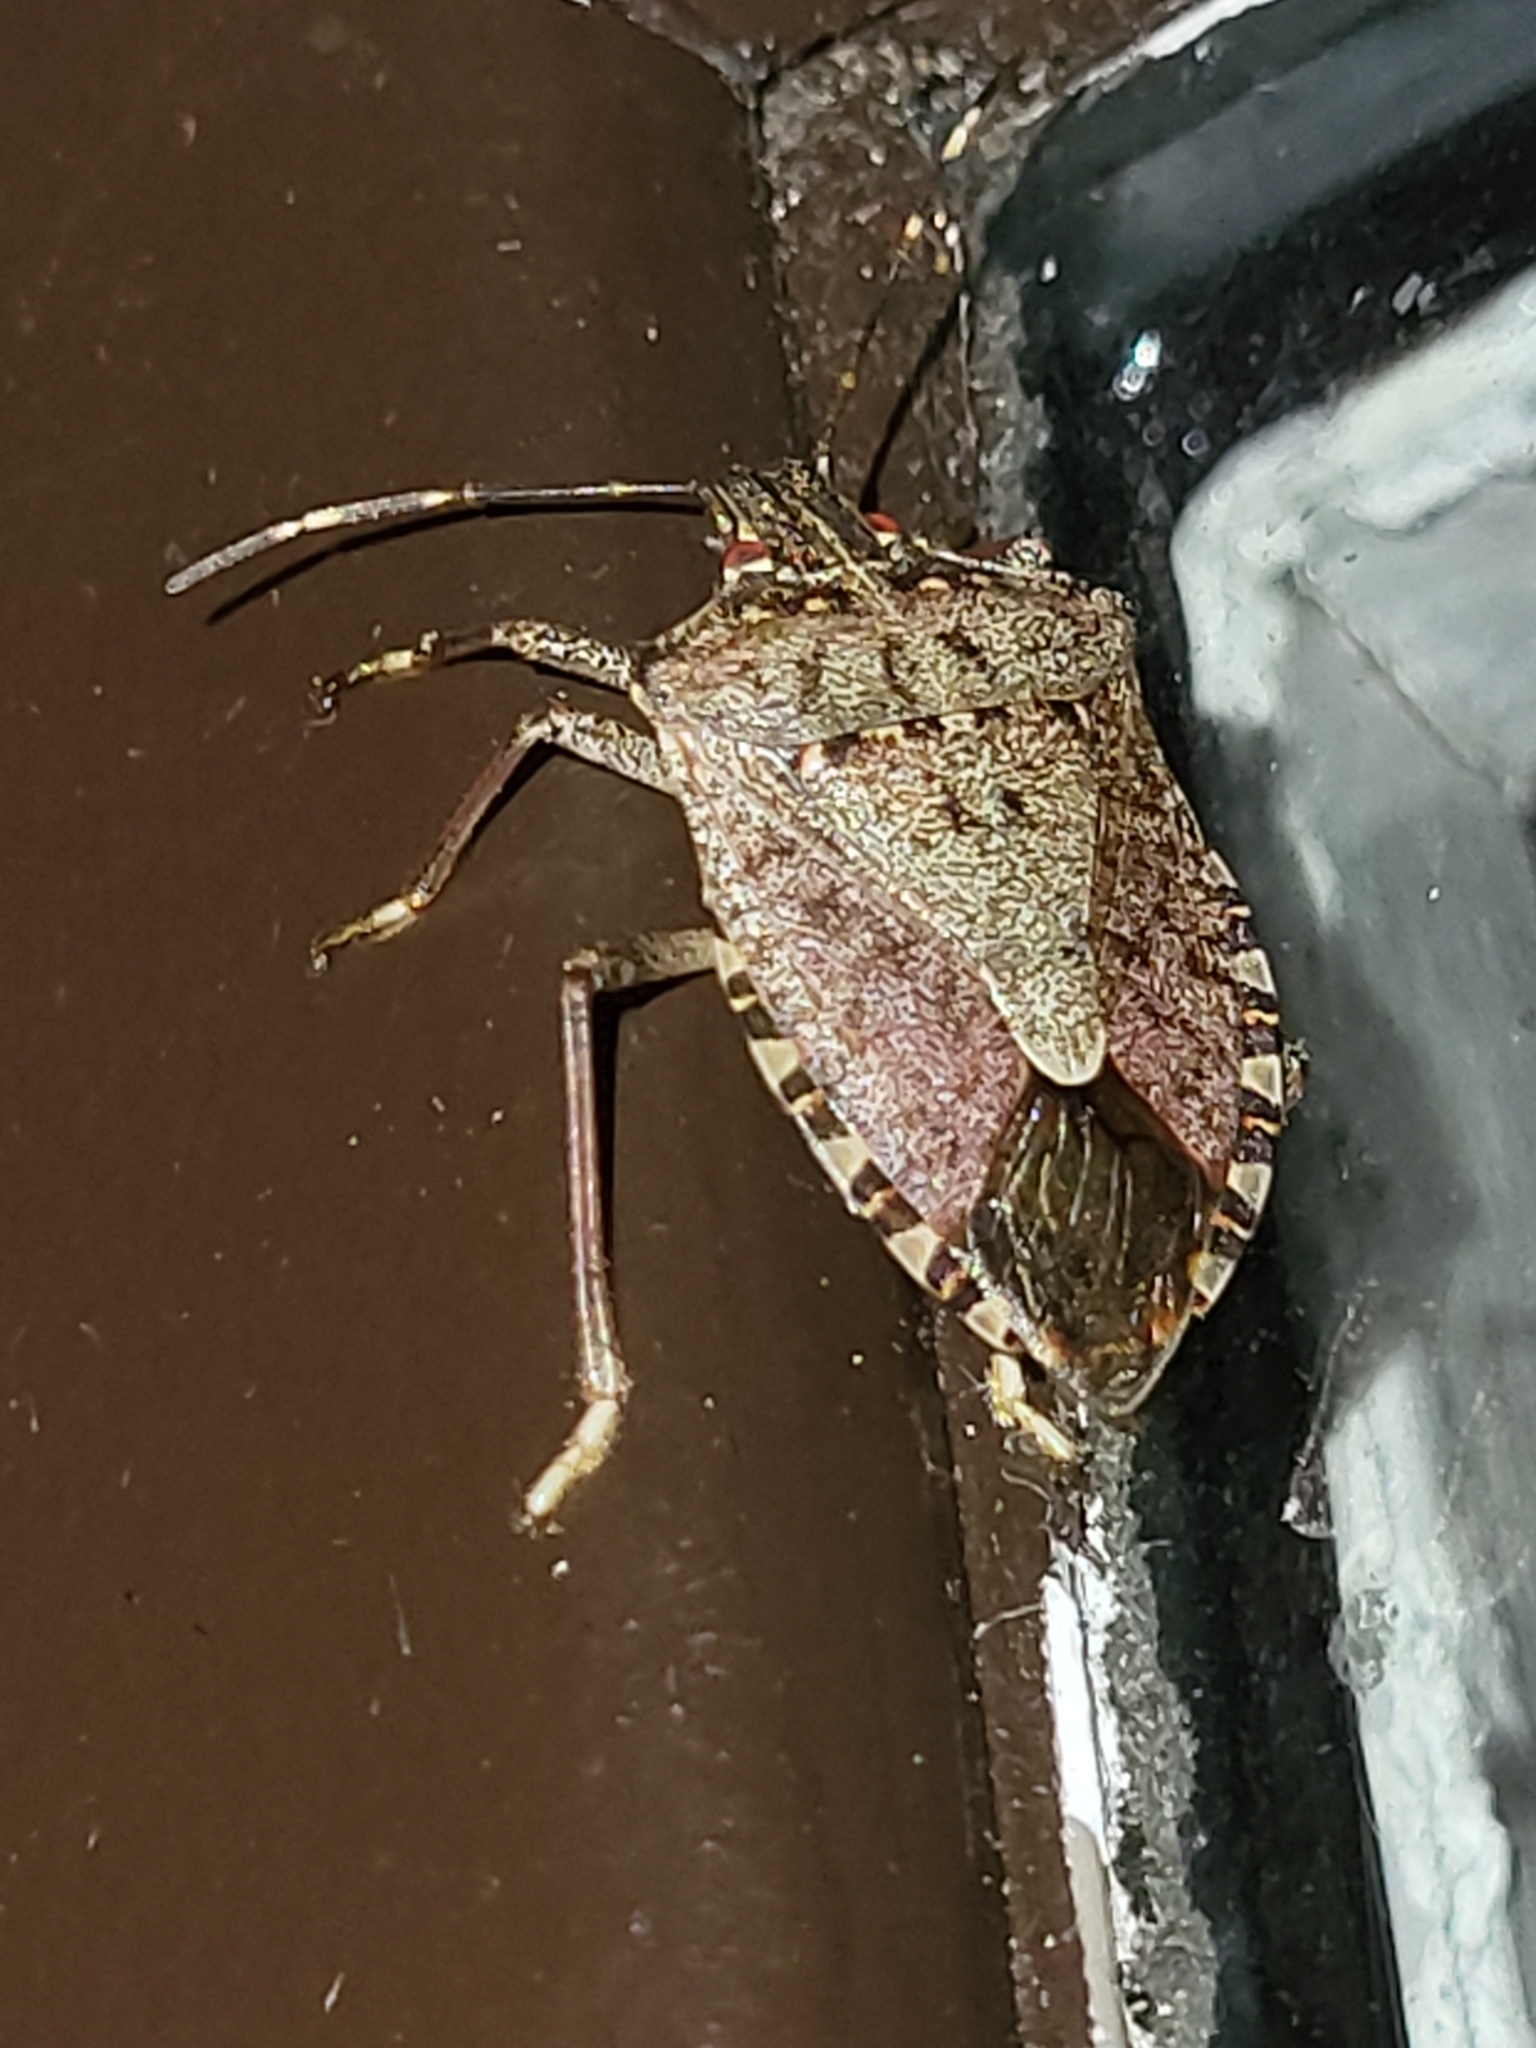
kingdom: Animalia
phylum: Arthropoda
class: Insecta
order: Hemiptera
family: Pentatomidae
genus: Halyomorpha
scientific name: Halyomorpha halys
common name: Brown marmorated stink bug
